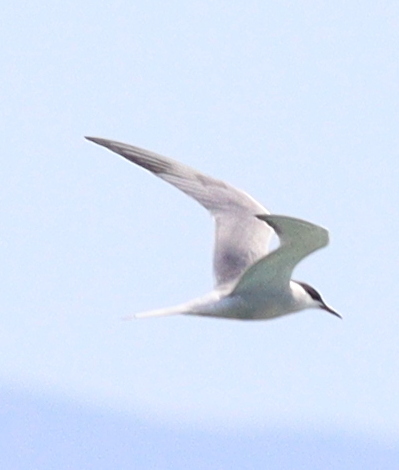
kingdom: Animalia
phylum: Chordata
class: Aves
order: Charadriiformes
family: Laridae
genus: Sterna
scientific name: Sterna hirundo
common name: Common tern
